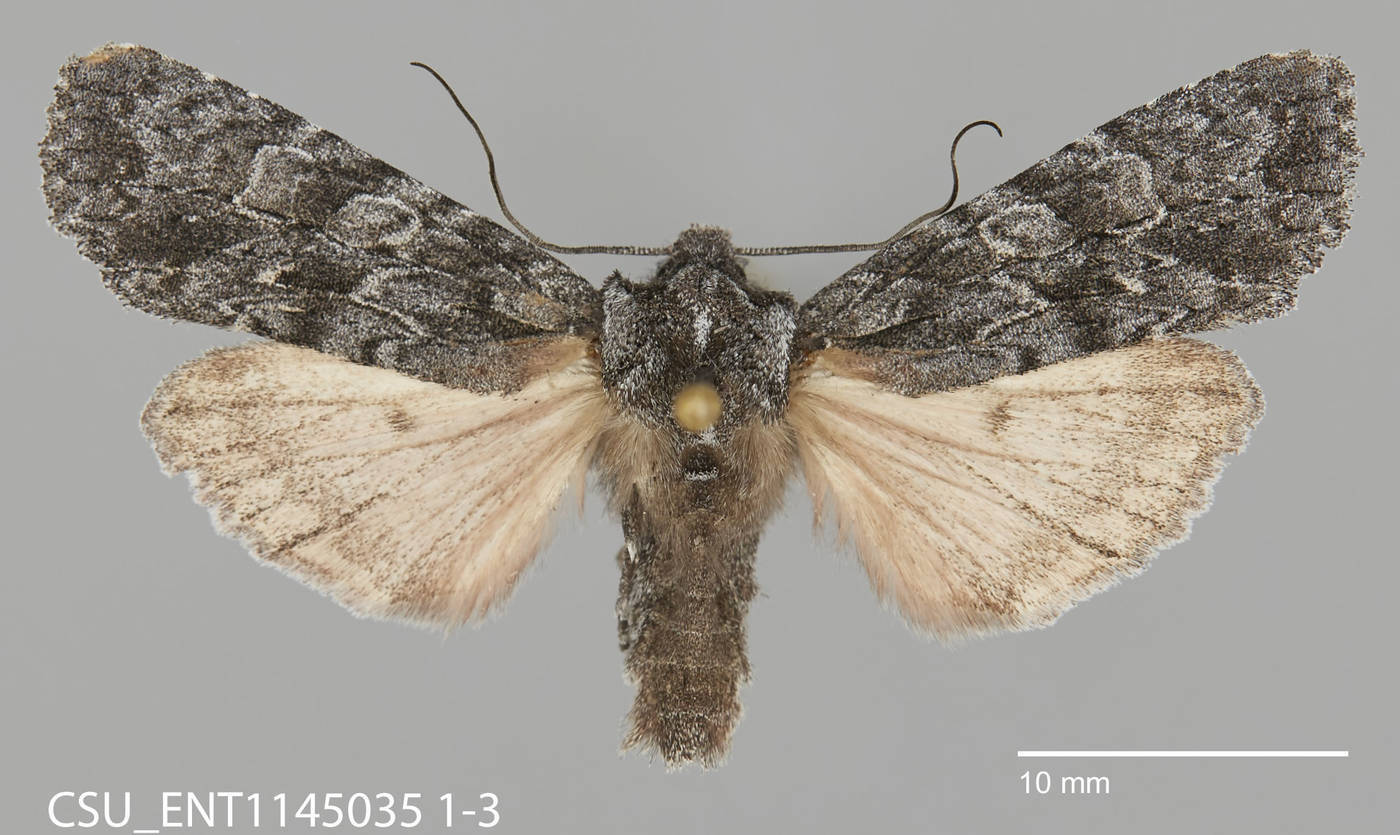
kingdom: Animalia
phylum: Arthropoda
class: Insecta
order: Lepidoptera
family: Noctuidae
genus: Lithophane
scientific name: Lithophane ponderosa
